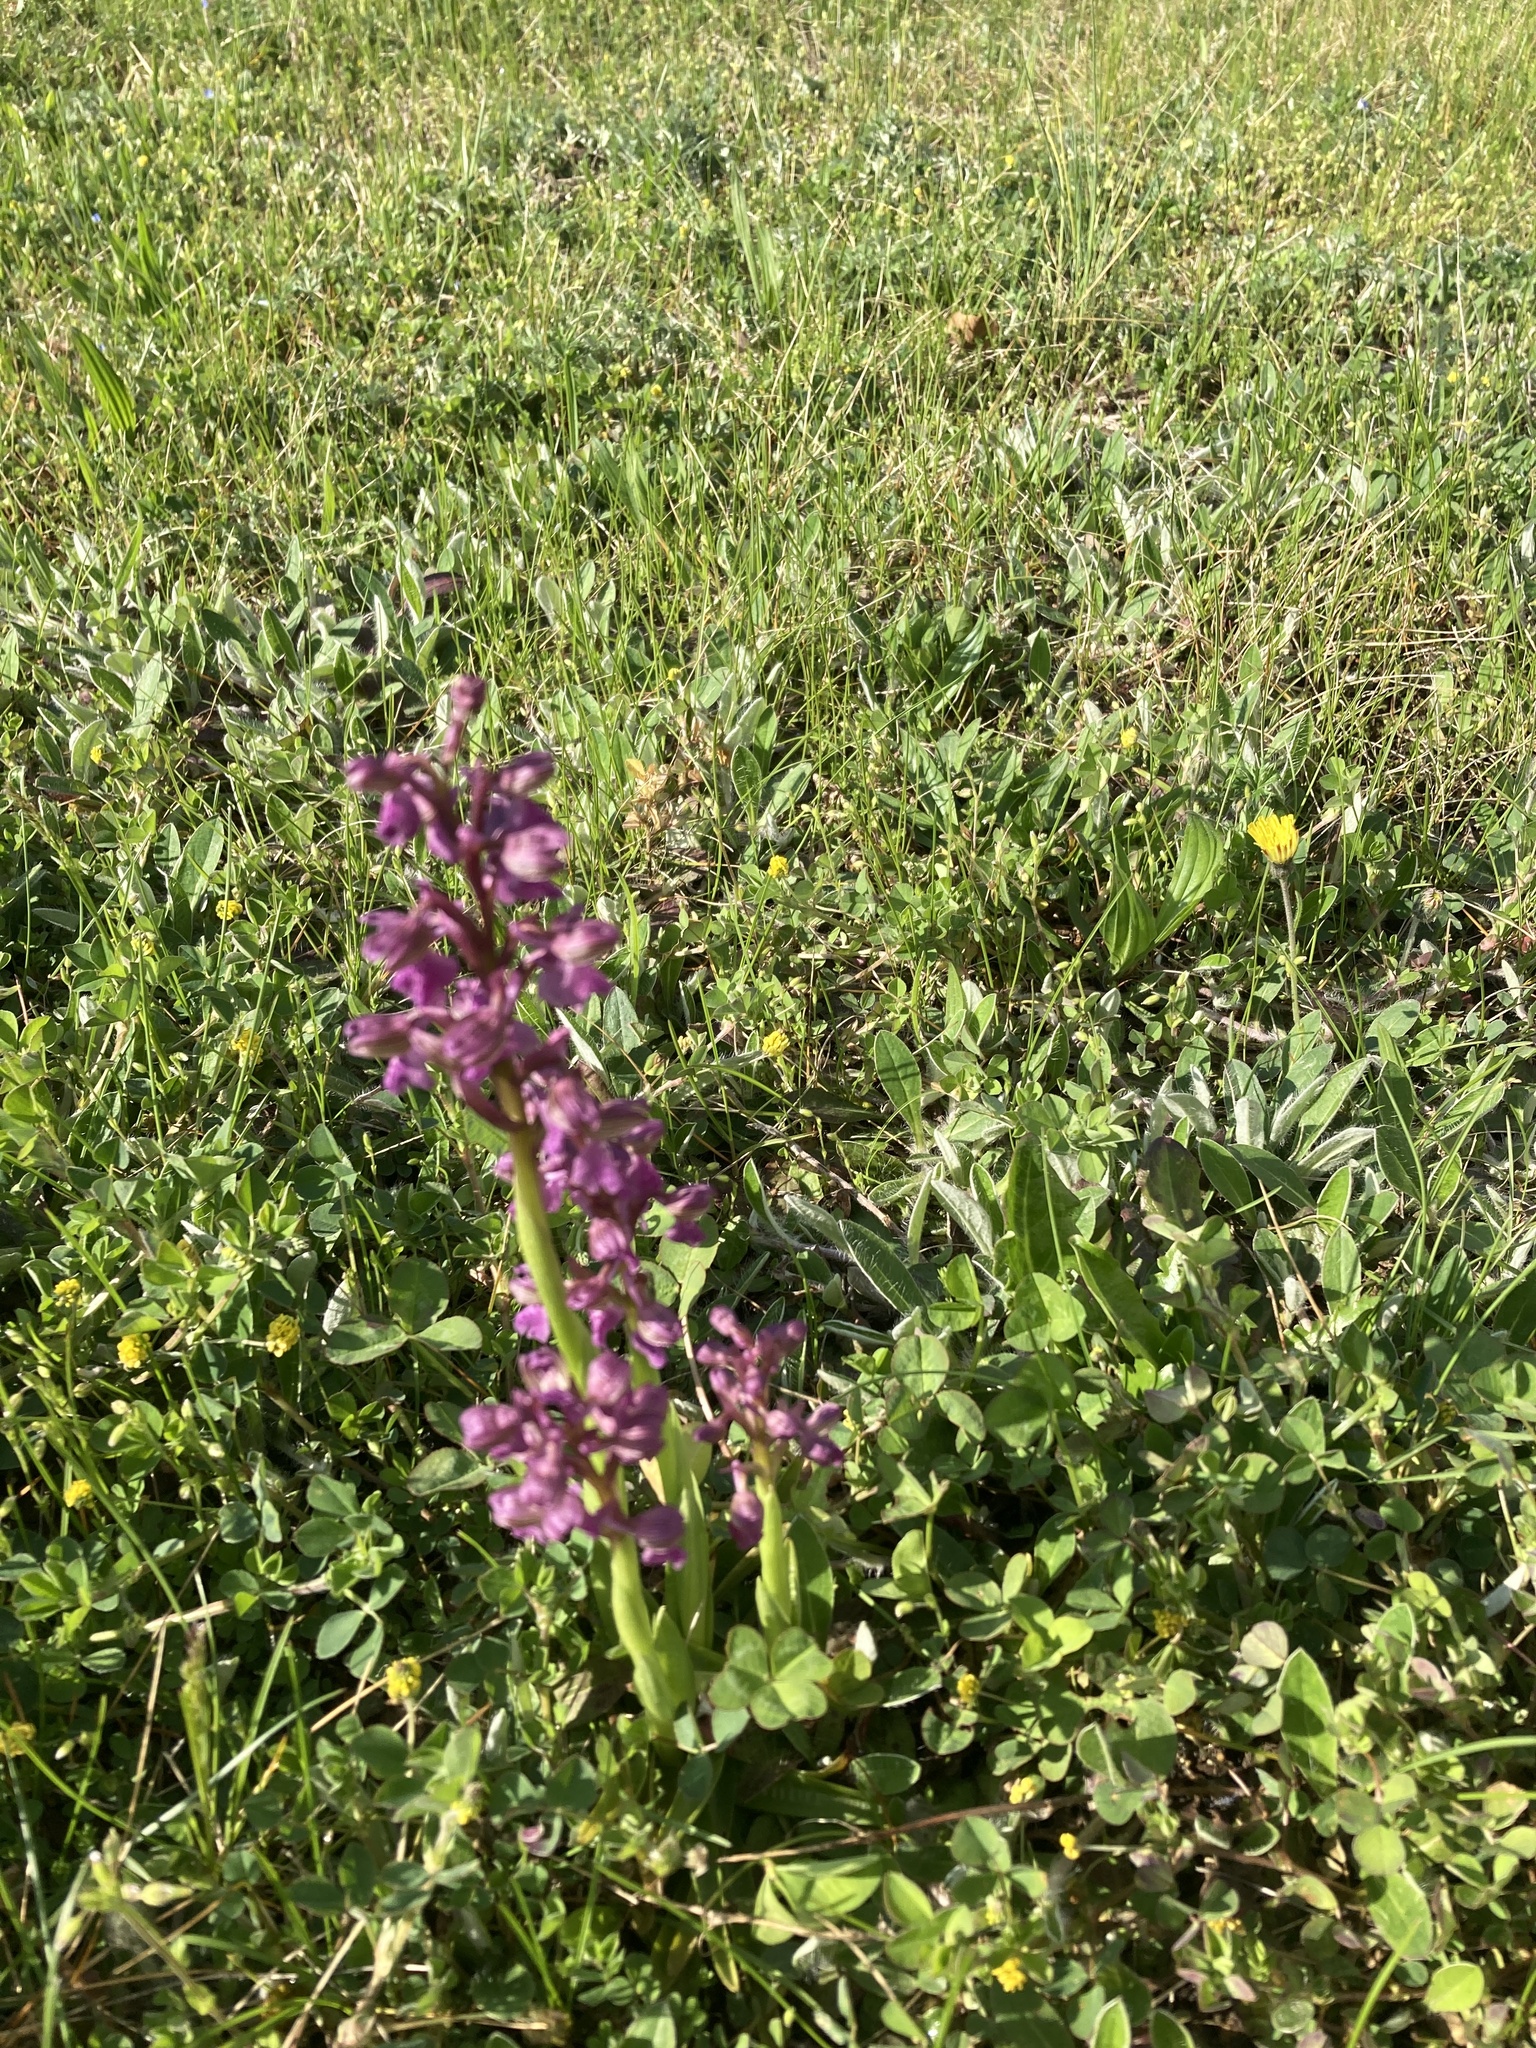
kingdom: Plantae
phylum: Tracheophyta
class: Liliopsida
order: Asparagales
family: Orchidaceae
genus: Anacamptis
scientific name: Anacamptis morio
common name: Green-winged orchid
